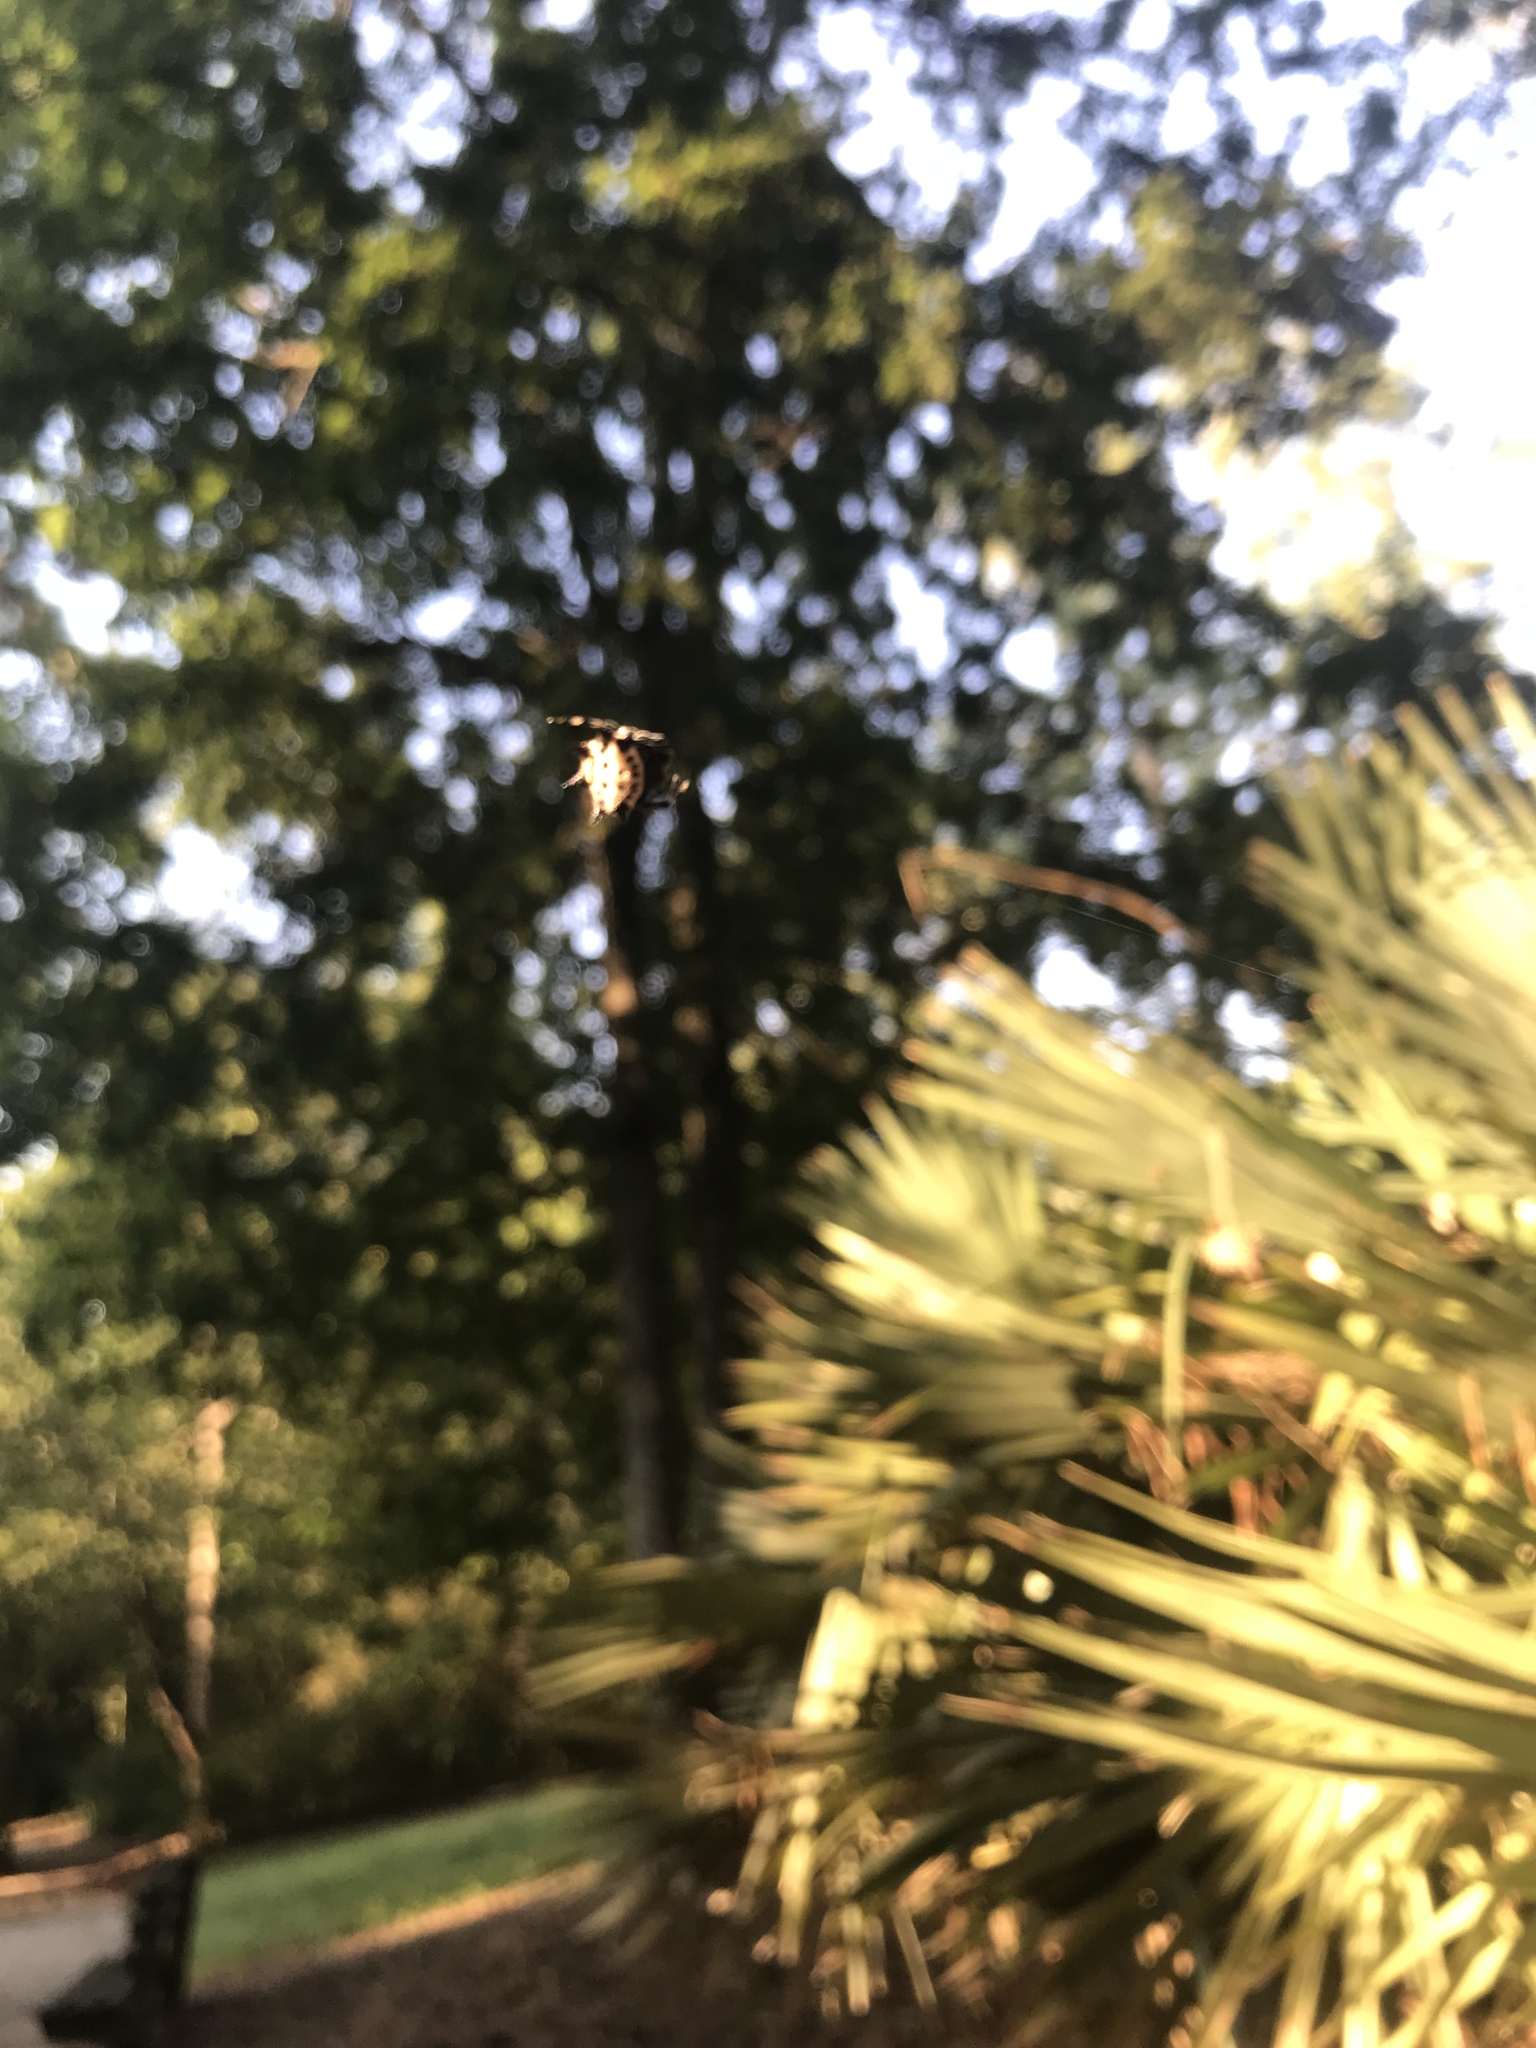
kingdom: Animalia
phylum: Arthropoda
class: Arachnida
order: Araneae
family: Araneidae
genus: Gasteracantha
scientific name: Gasteracantha cancriformis
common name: Orb weavers
